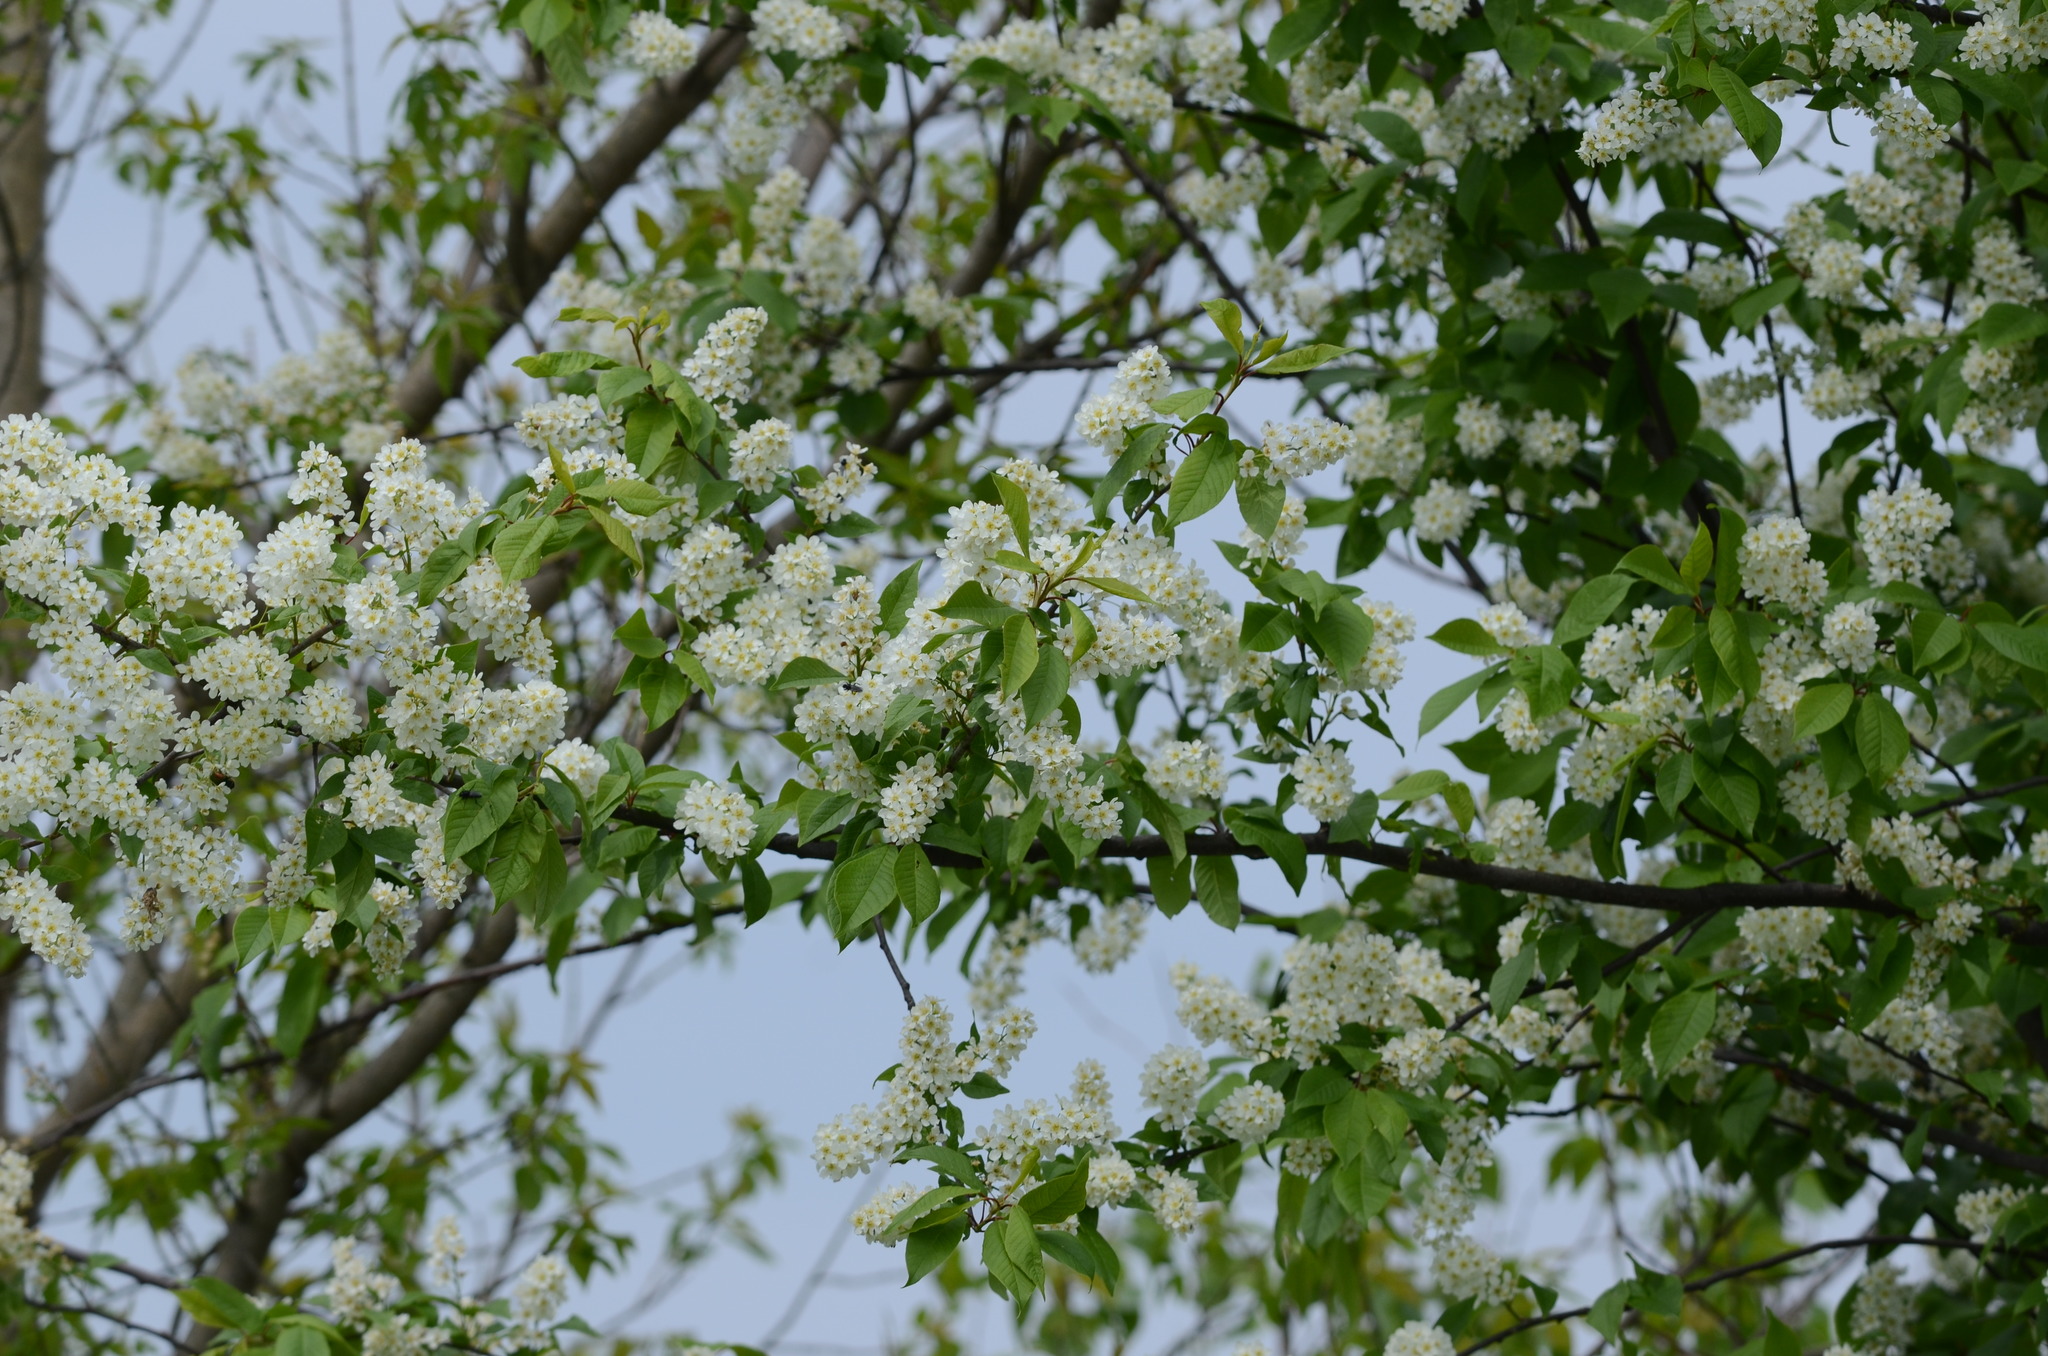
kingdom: Plantae
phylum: Tracheophyta
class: Magnoliopsida
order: Rosales
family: Rosaceae
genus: Prunus
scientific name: Prunus padus
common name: Bird cherry
